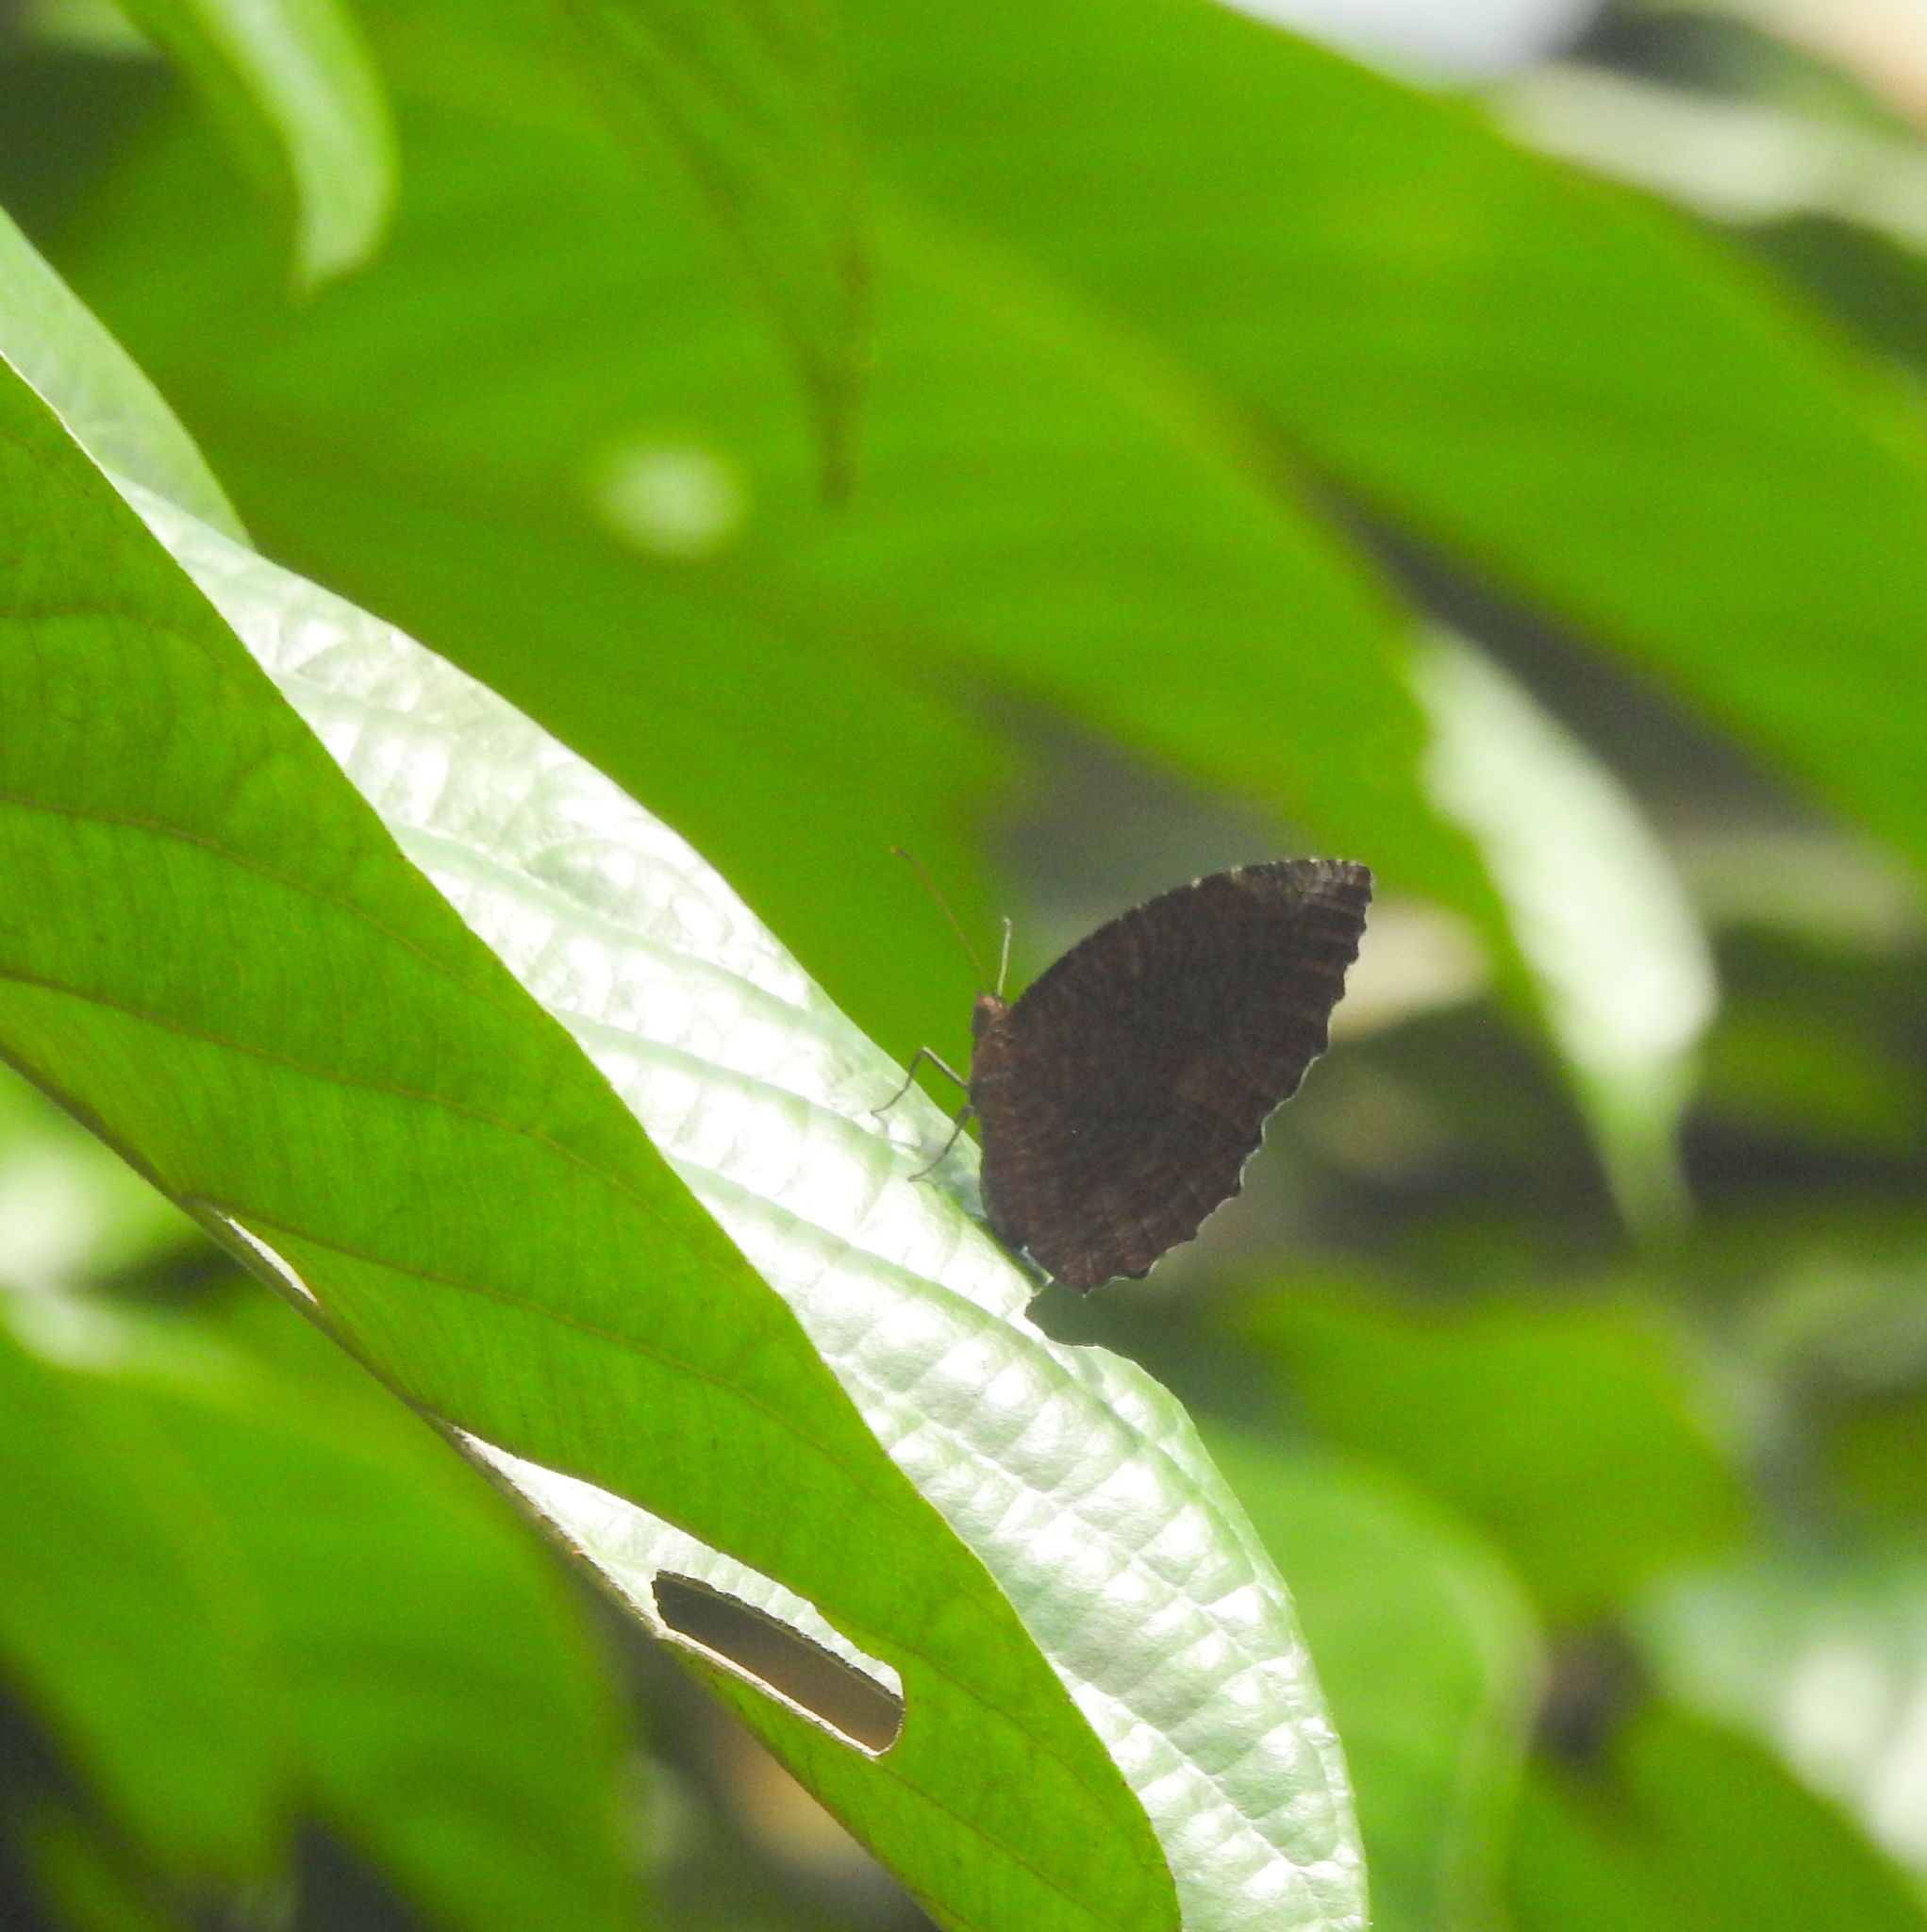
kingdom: Animalia
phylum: Arthropoda
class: Insecta
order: Lepidoptera
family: Nymphalidae
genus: Elymnias
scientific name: Elymnias hypermnestra
